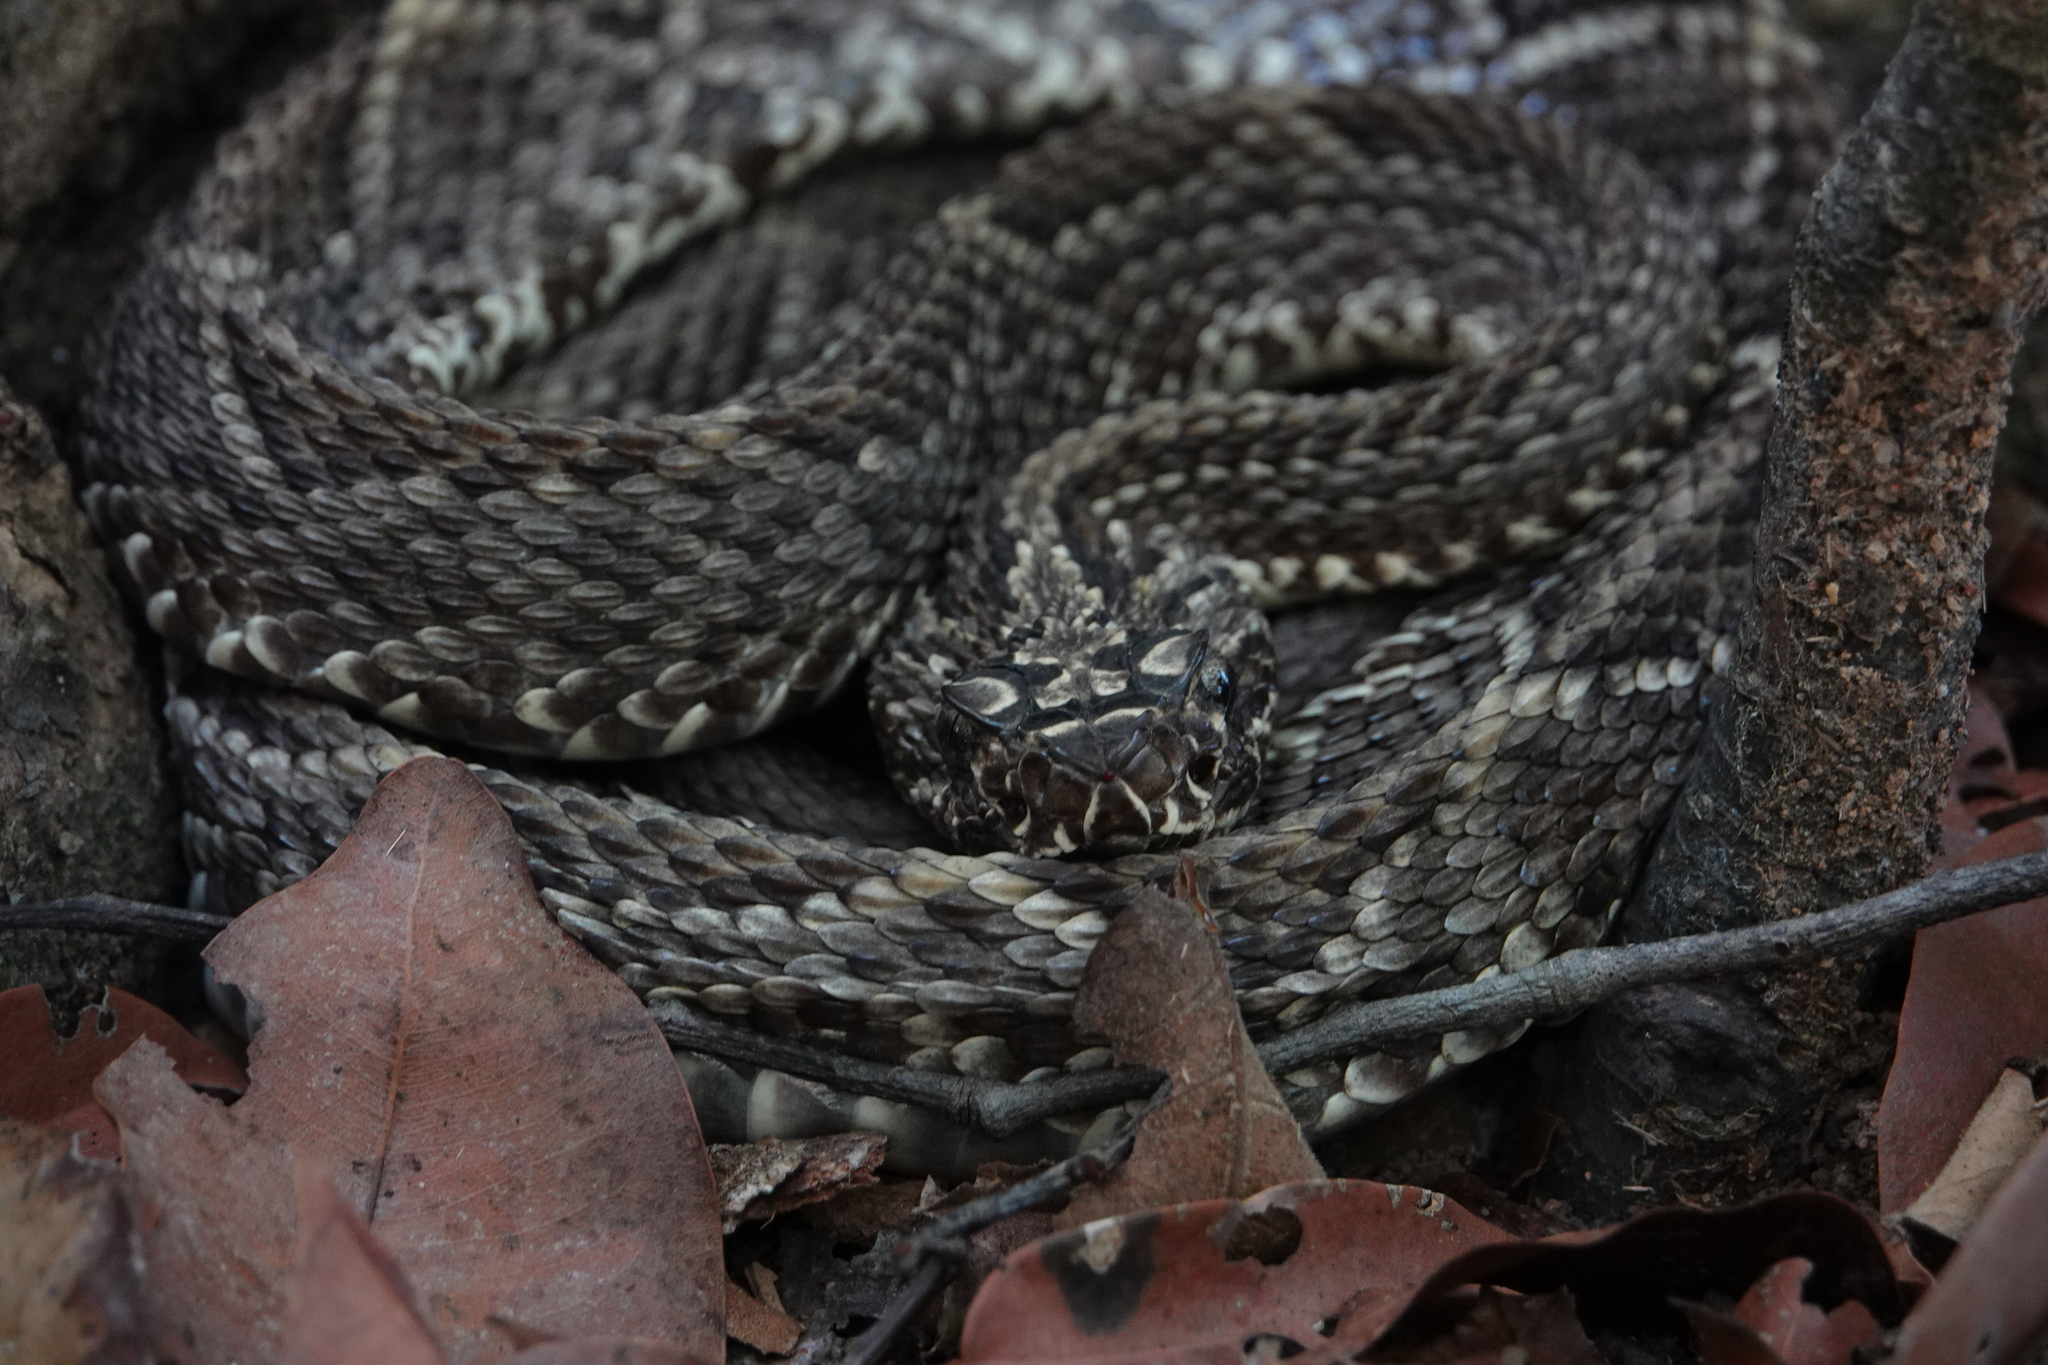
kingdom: Animalia
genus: Crotalus
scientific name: Crotalus durissus
